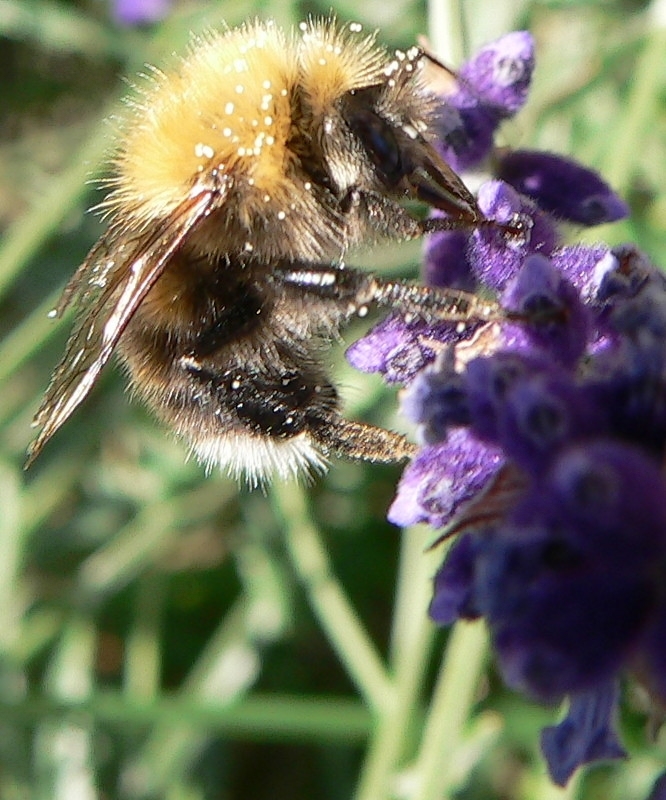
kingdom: Animalia
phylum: Arthropoda
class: Insecta
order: Hymenoptera
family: Apidae
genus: Bombus
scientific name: Bombus hypnorum
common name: New garden bumblebee
